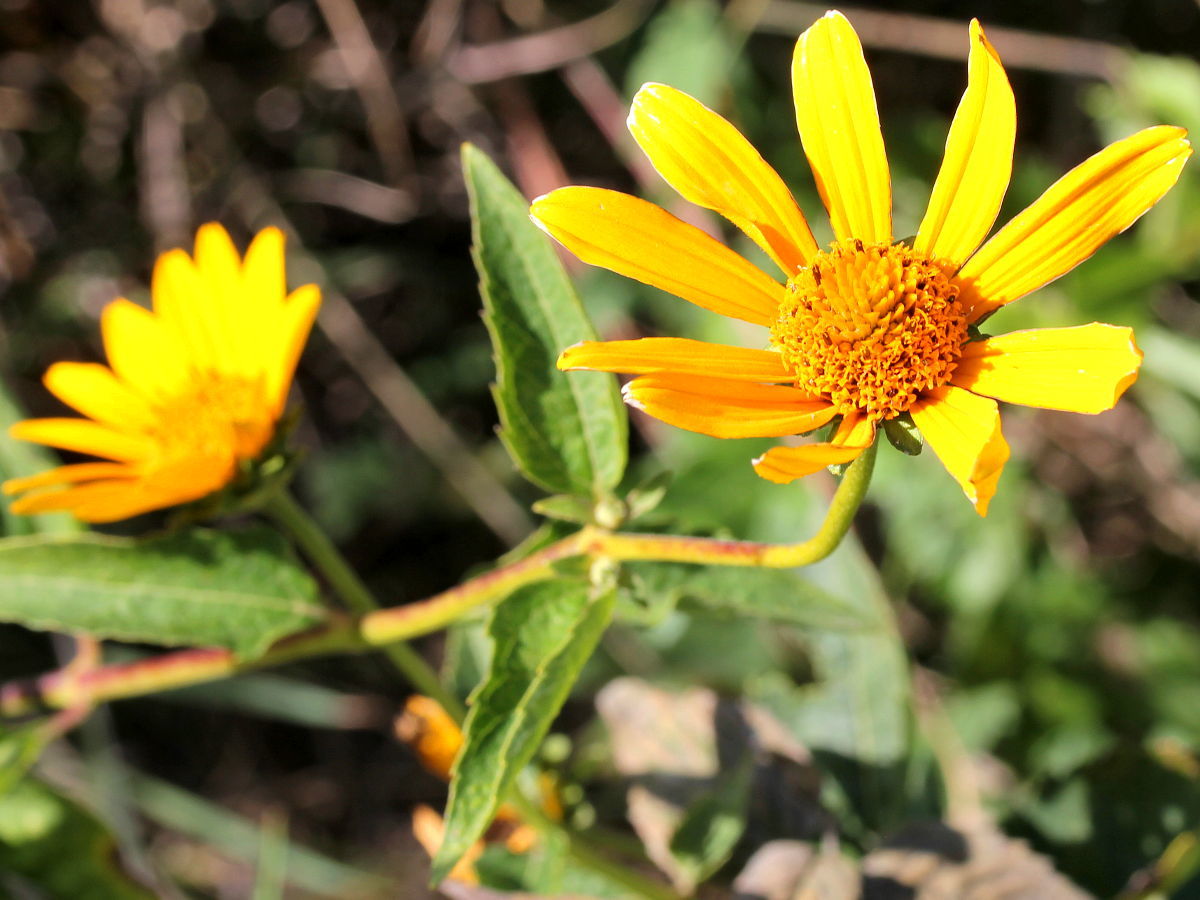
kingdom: Plantae
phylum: Tracheophyta
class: Magnoliopsida
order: Asterales
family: Asteraceae
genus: Heliopsis
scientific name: Heliopsis helianthoides
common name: False sunflower
